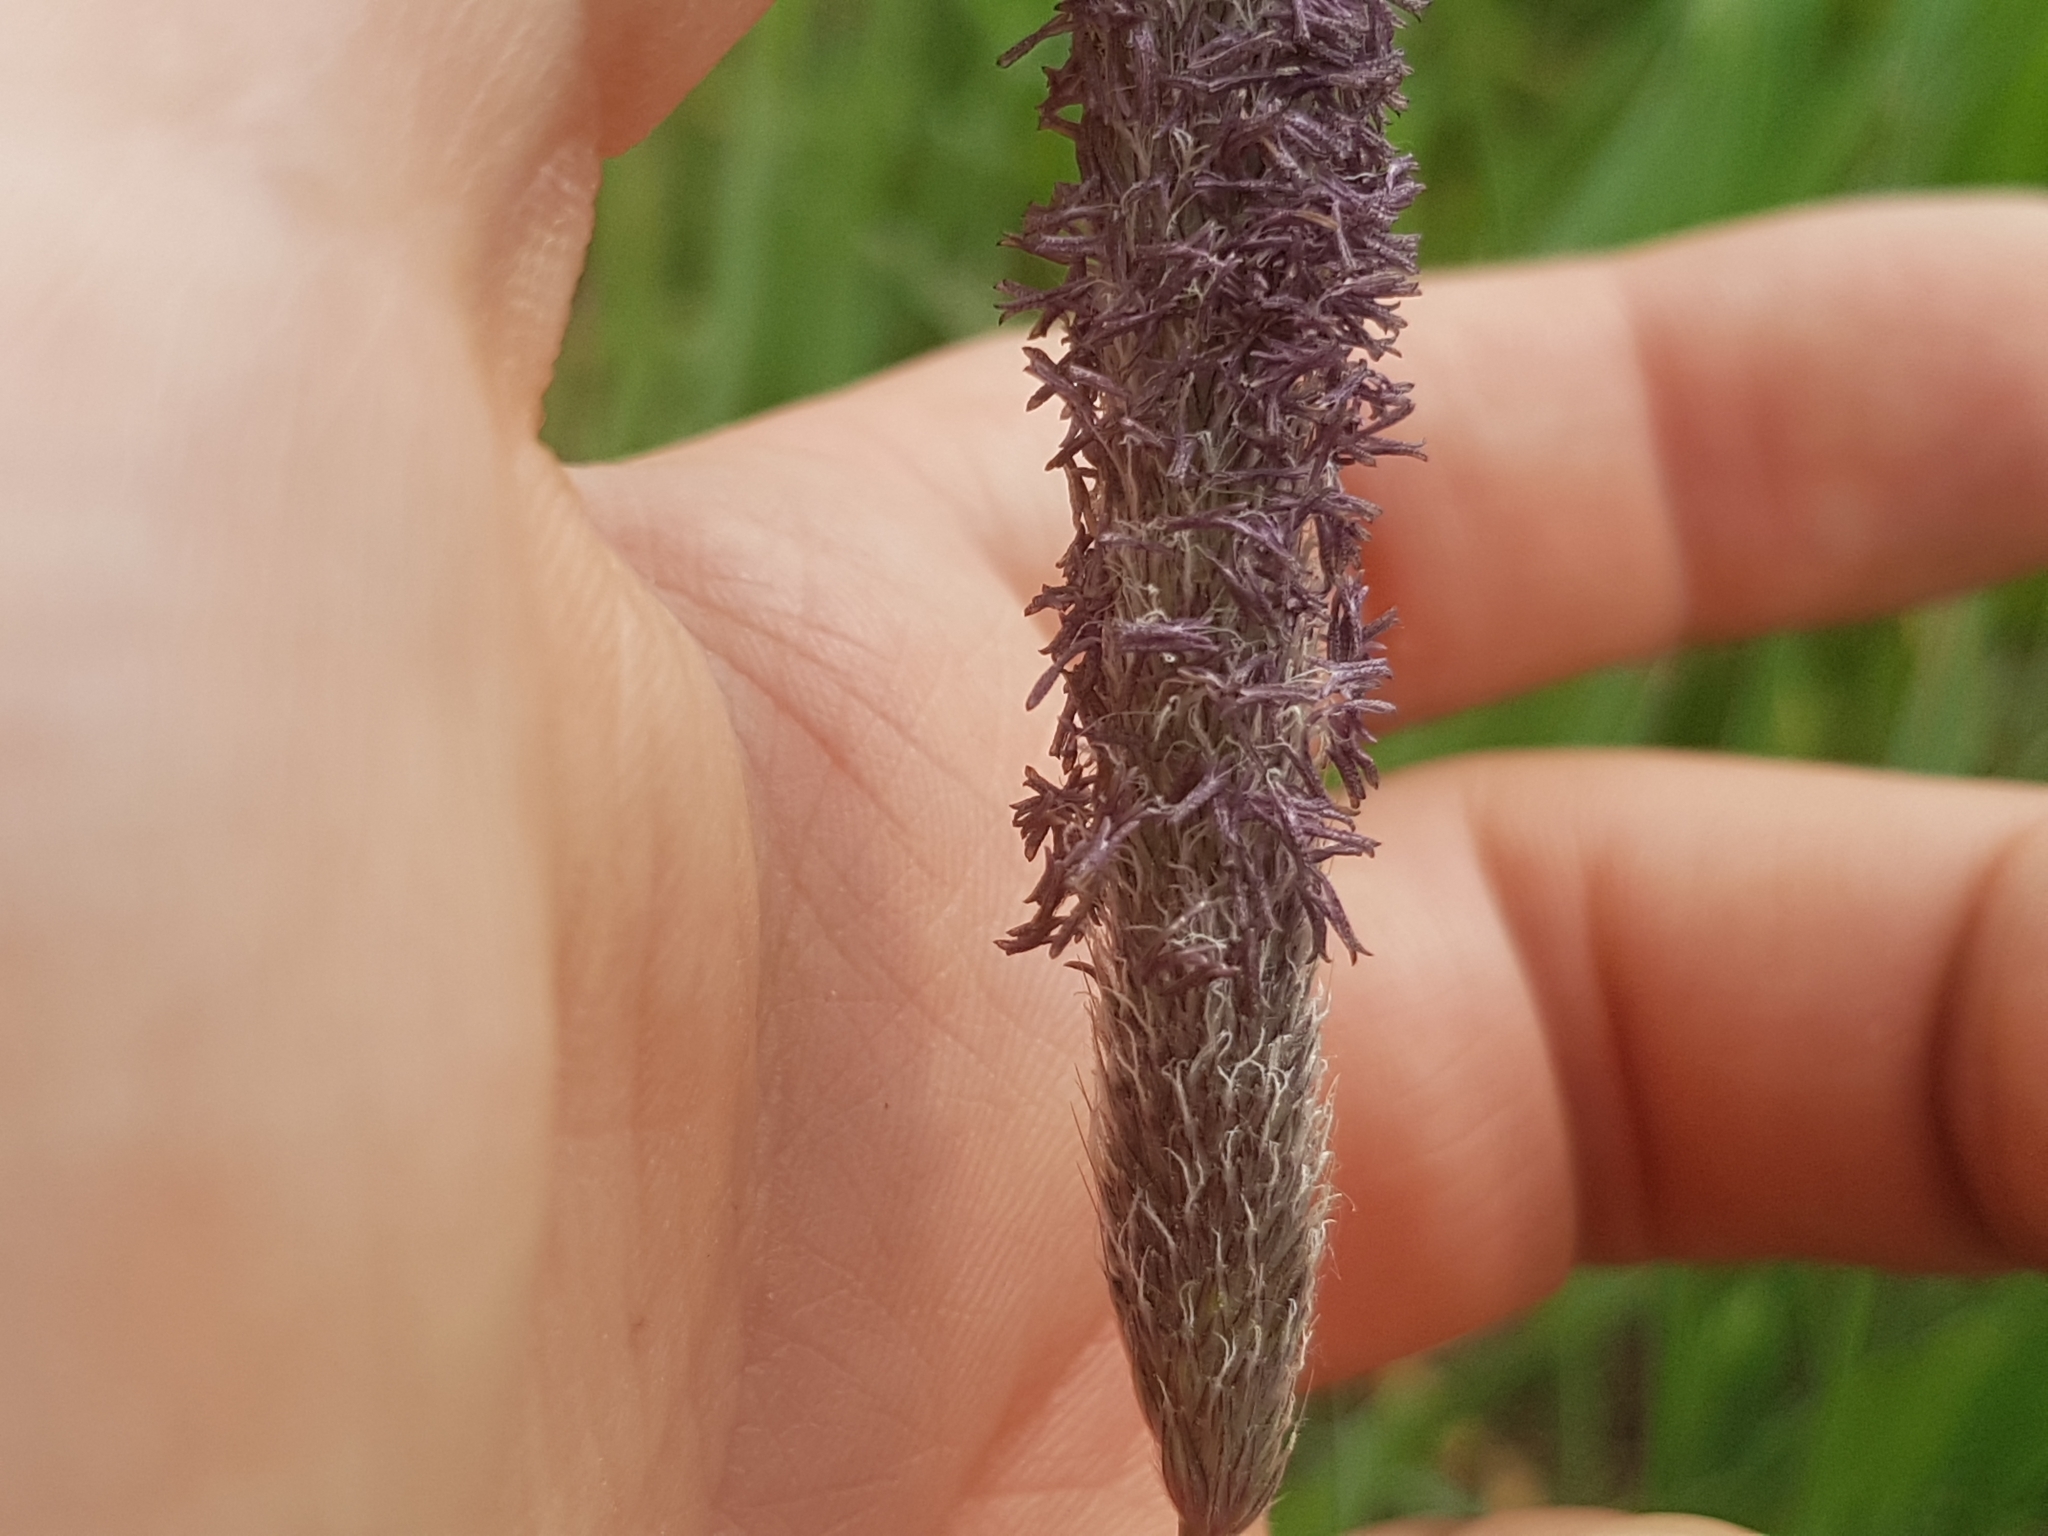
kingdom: Plantae
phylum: Tracheophyta
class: Liliopsida
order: Poales
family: Poaceae
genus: Alopecurus
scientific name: Alopecurus pratensis
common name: Meadow foxtail
